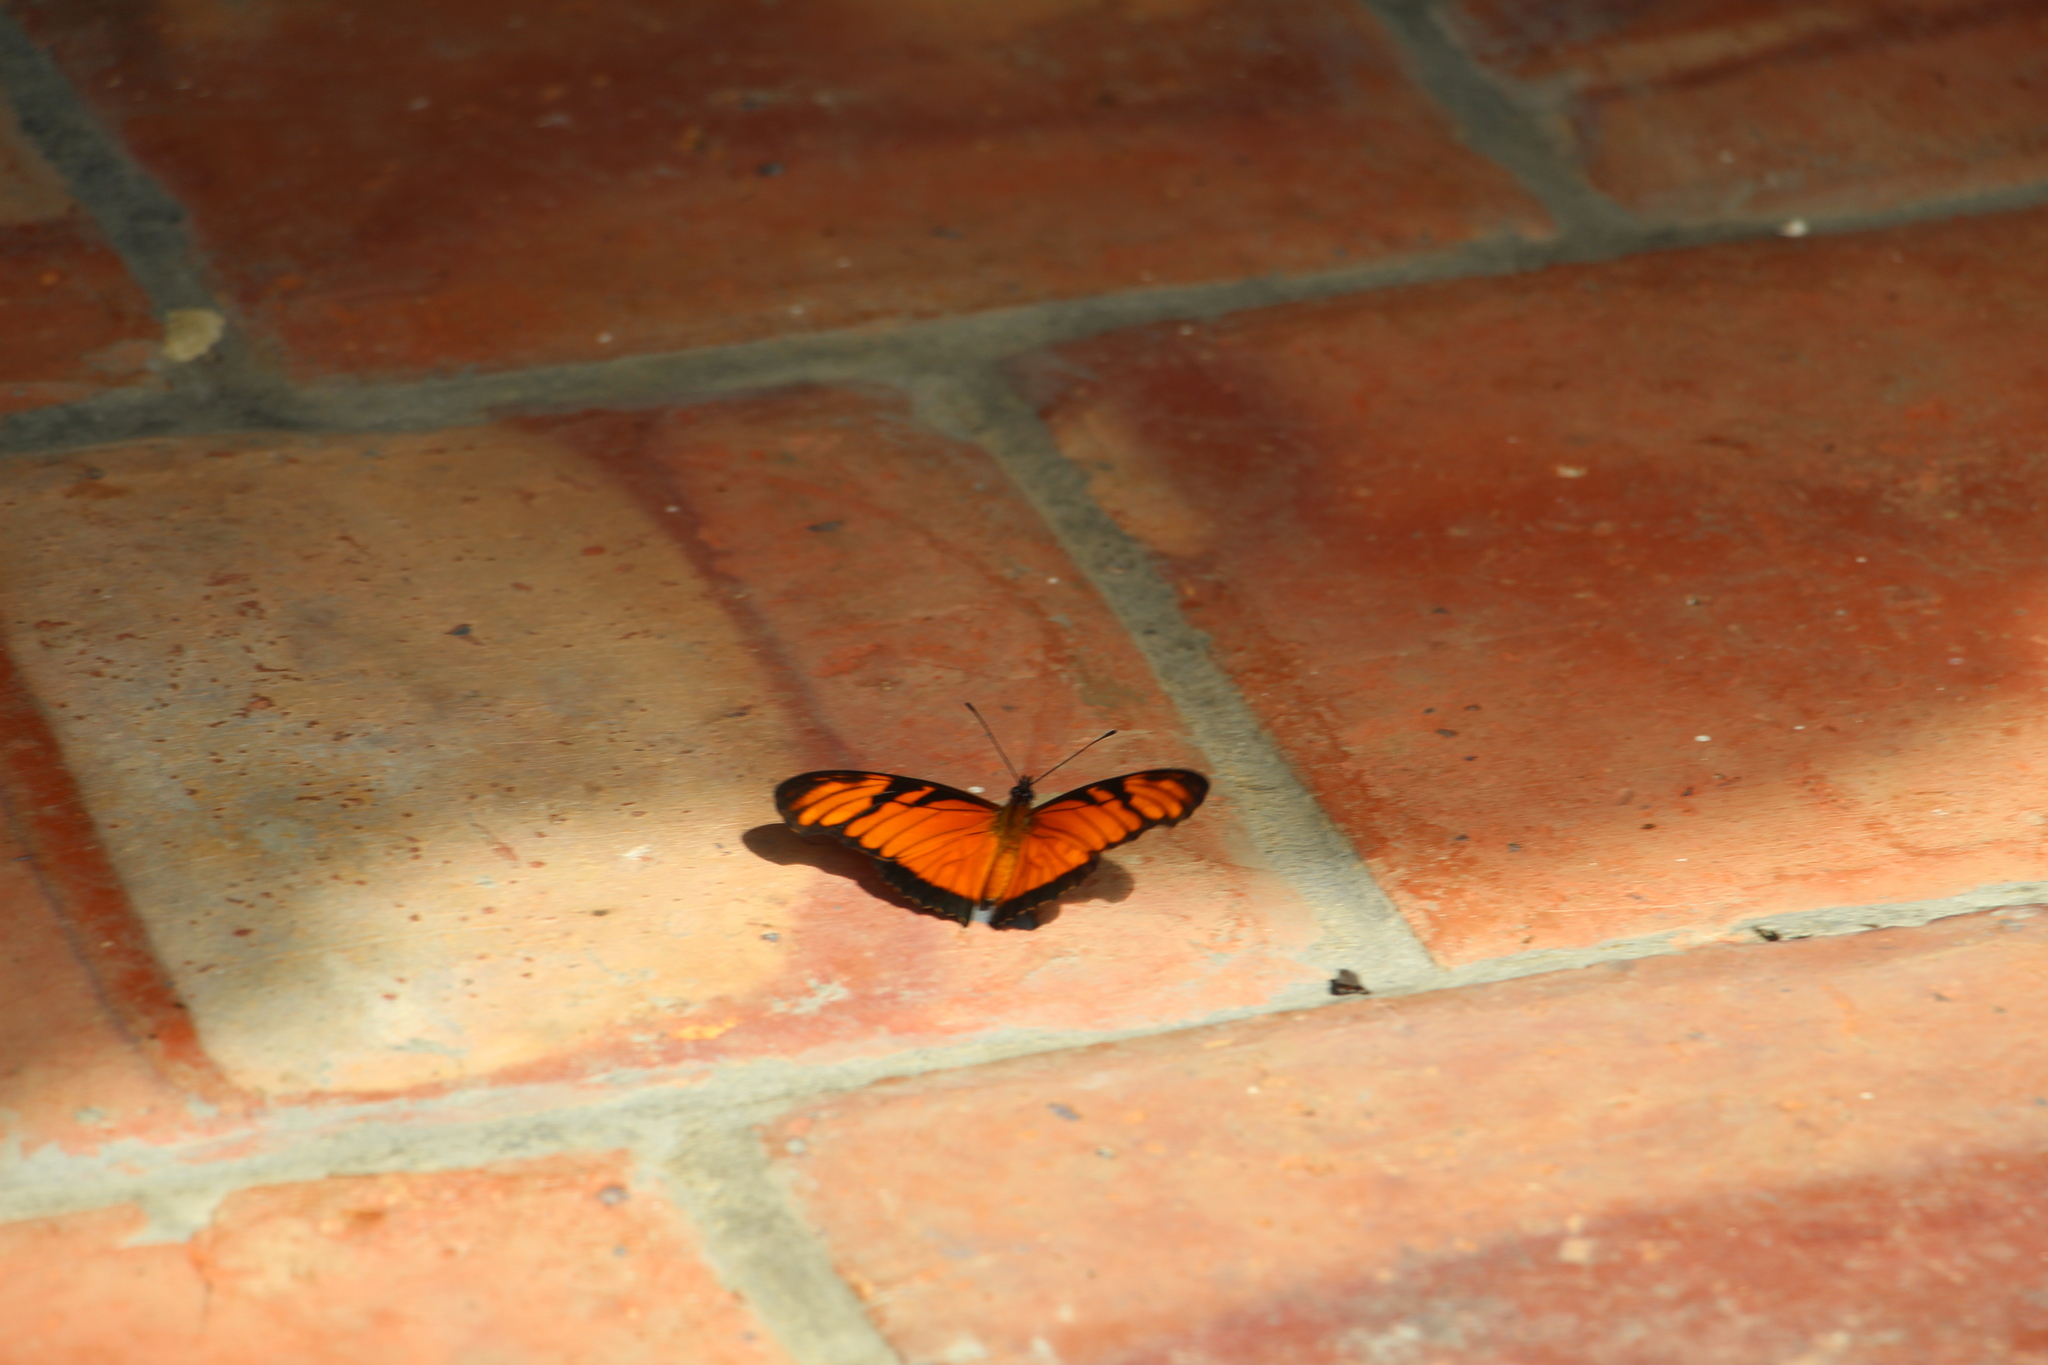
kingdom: Animalia
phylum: Arthropoda
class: Insecta
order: Lepidoptera
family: Nymphalidae
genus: Dione
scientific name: Dione juno
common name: Juno silverspot
